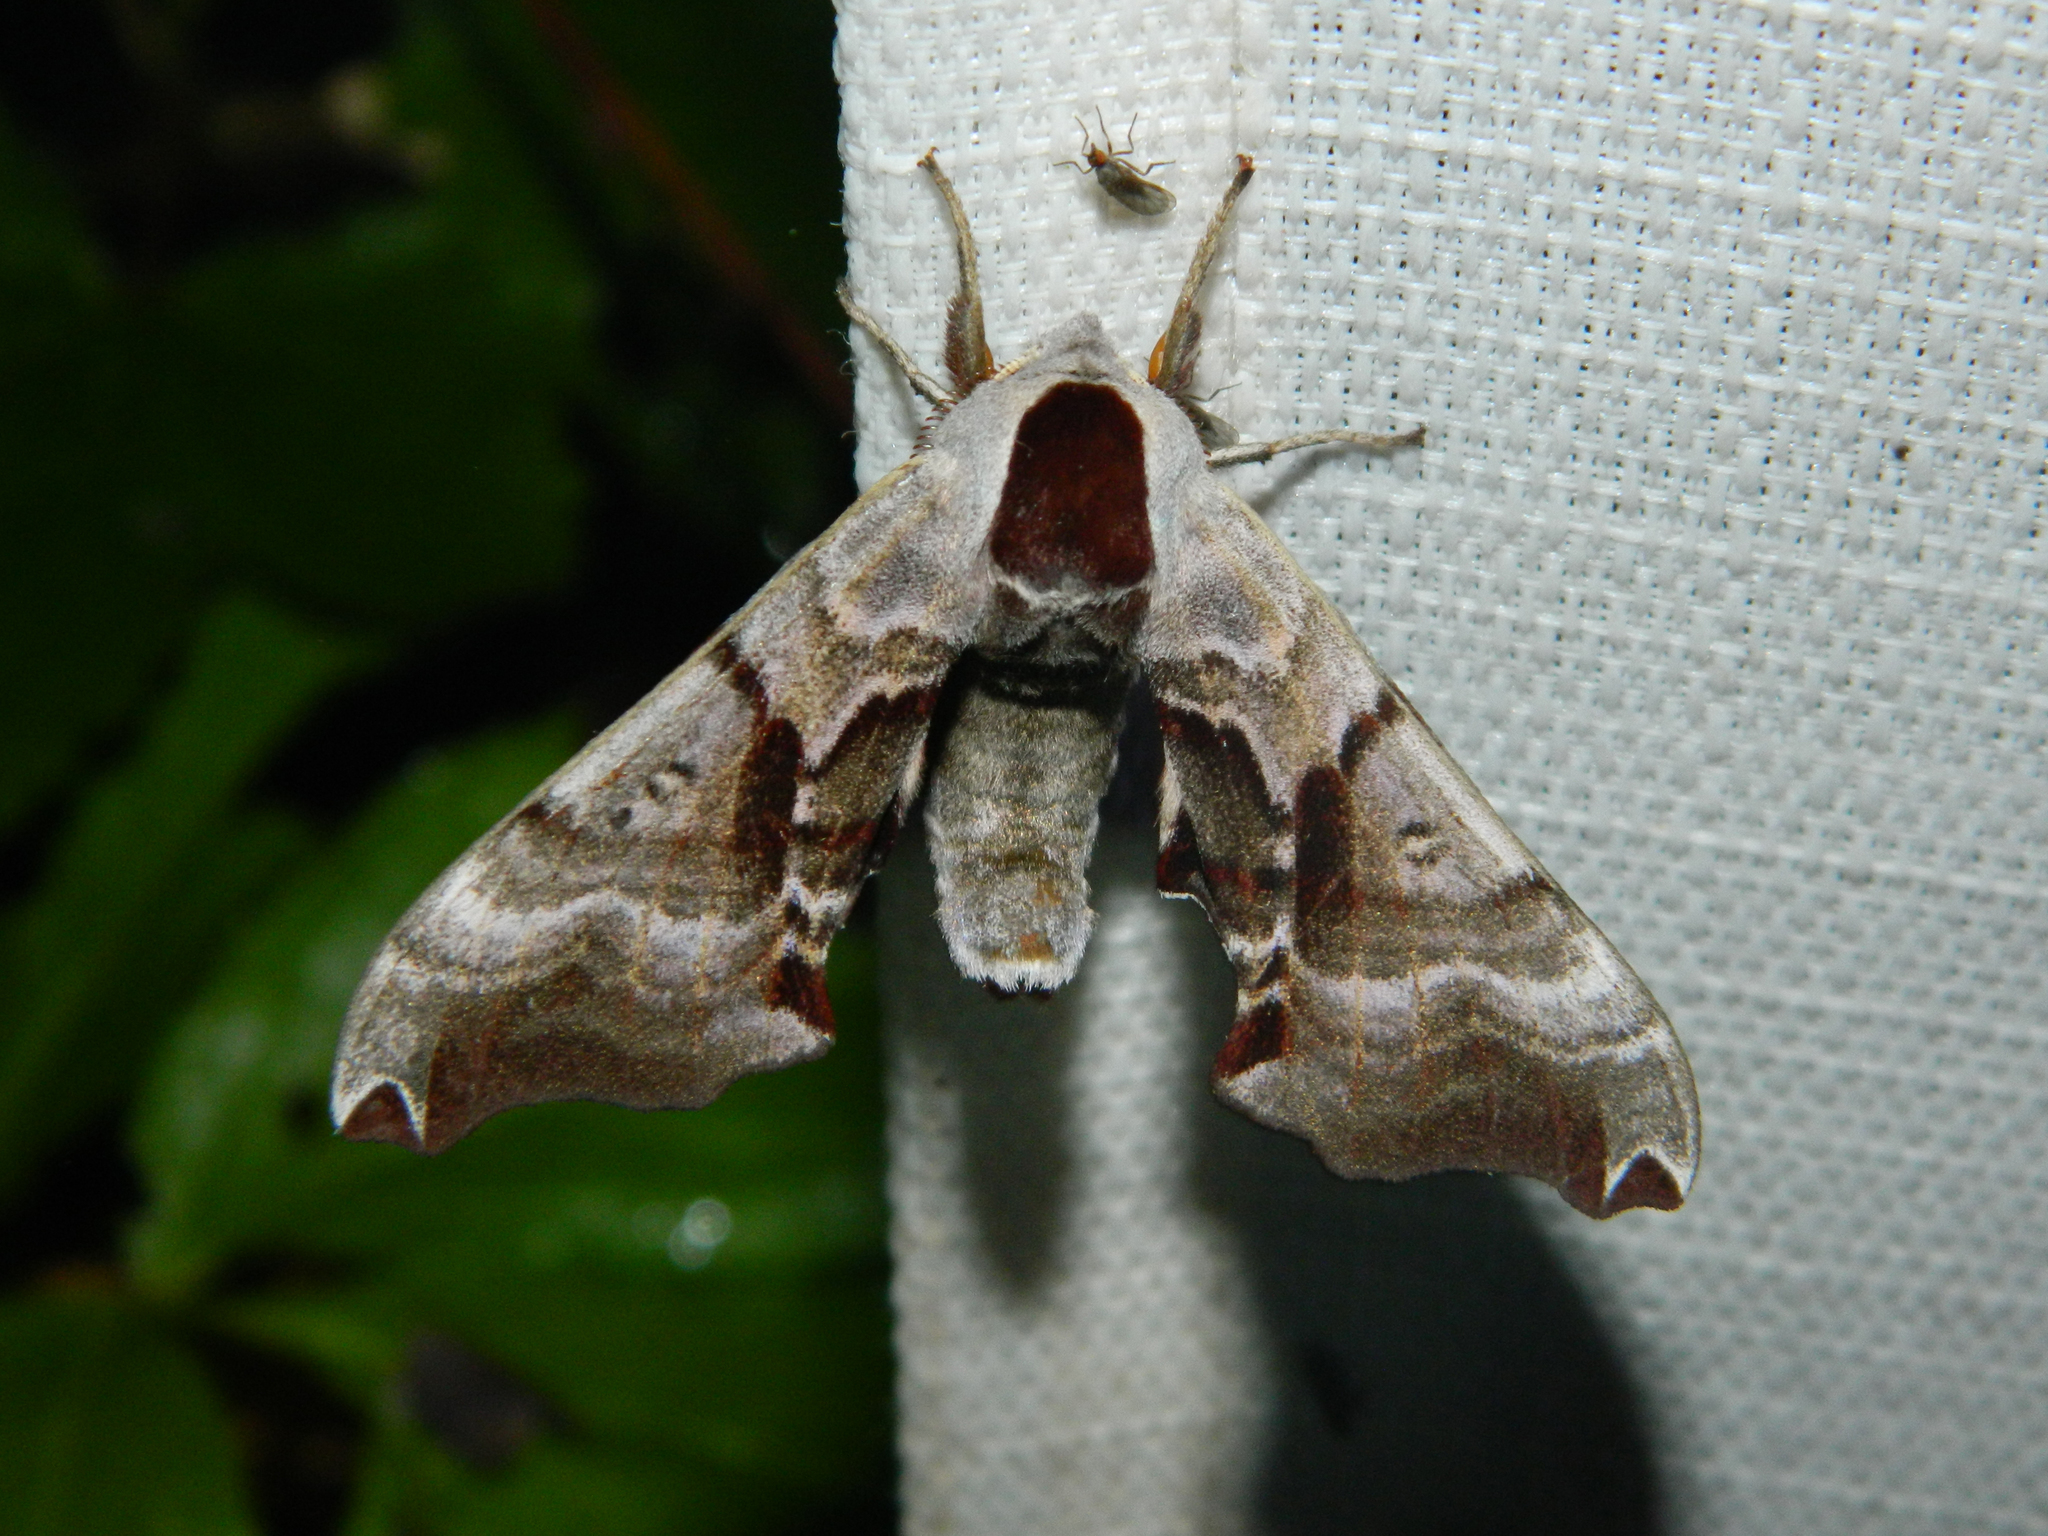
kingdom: Animalia
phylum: Arthropoda
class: Insecta
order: Lepidoptera
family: Sphingidae
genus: Smerinthus
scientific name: Smerinthus jamaicensis
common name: Twin spotted sphinx
